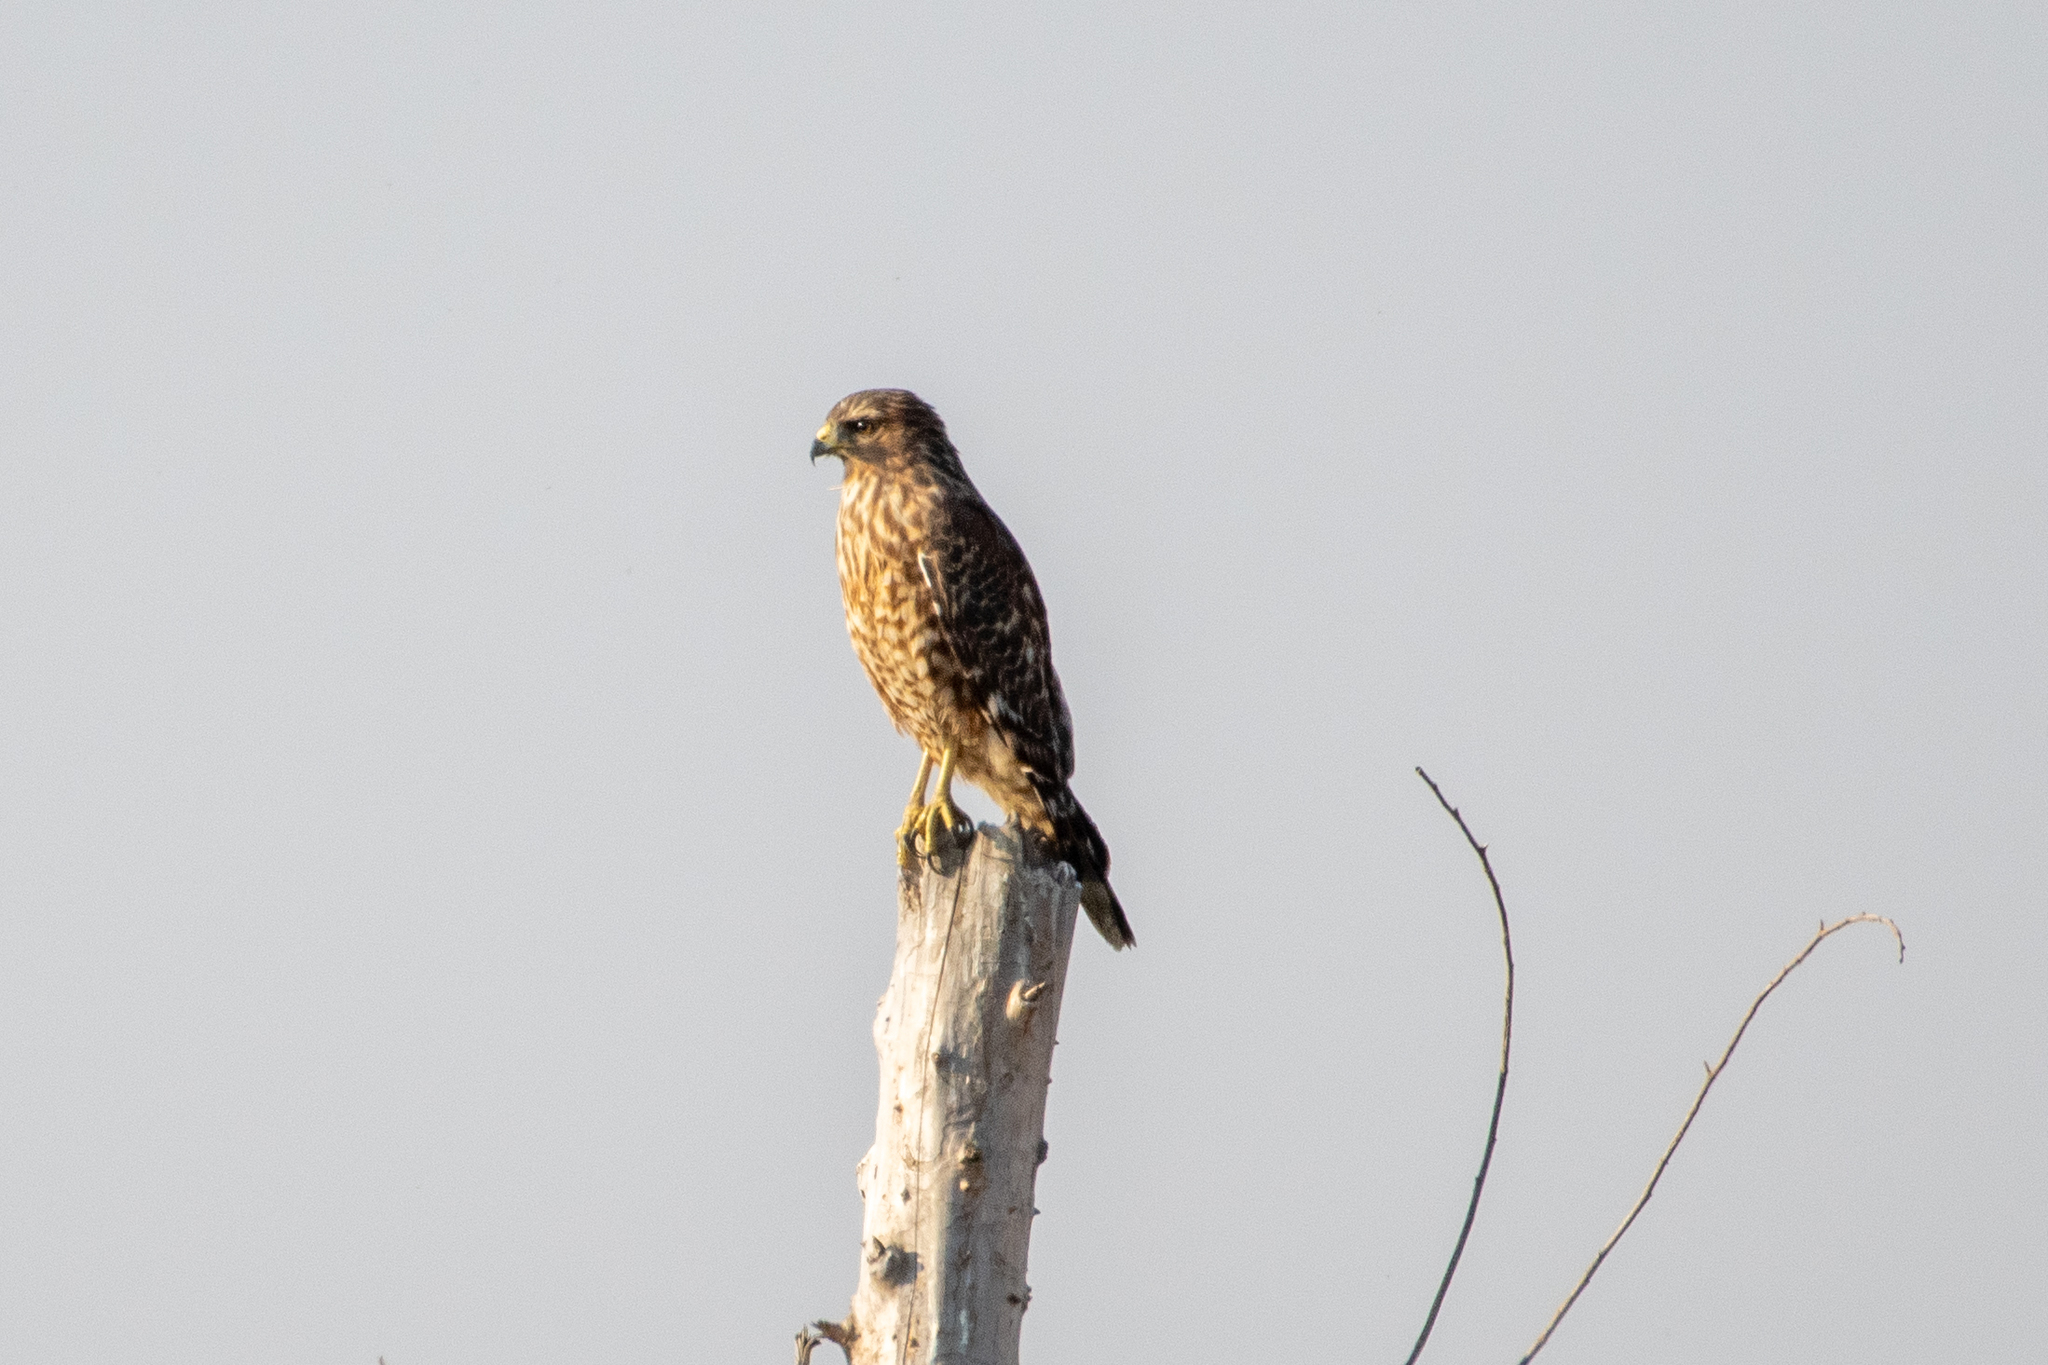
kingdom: Animalia
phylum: Chordata
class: Aves
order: Accipitriformes
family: Accipitridae
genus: Buteo
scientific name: Buteo lineatus
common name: Red-shouldered hawk
